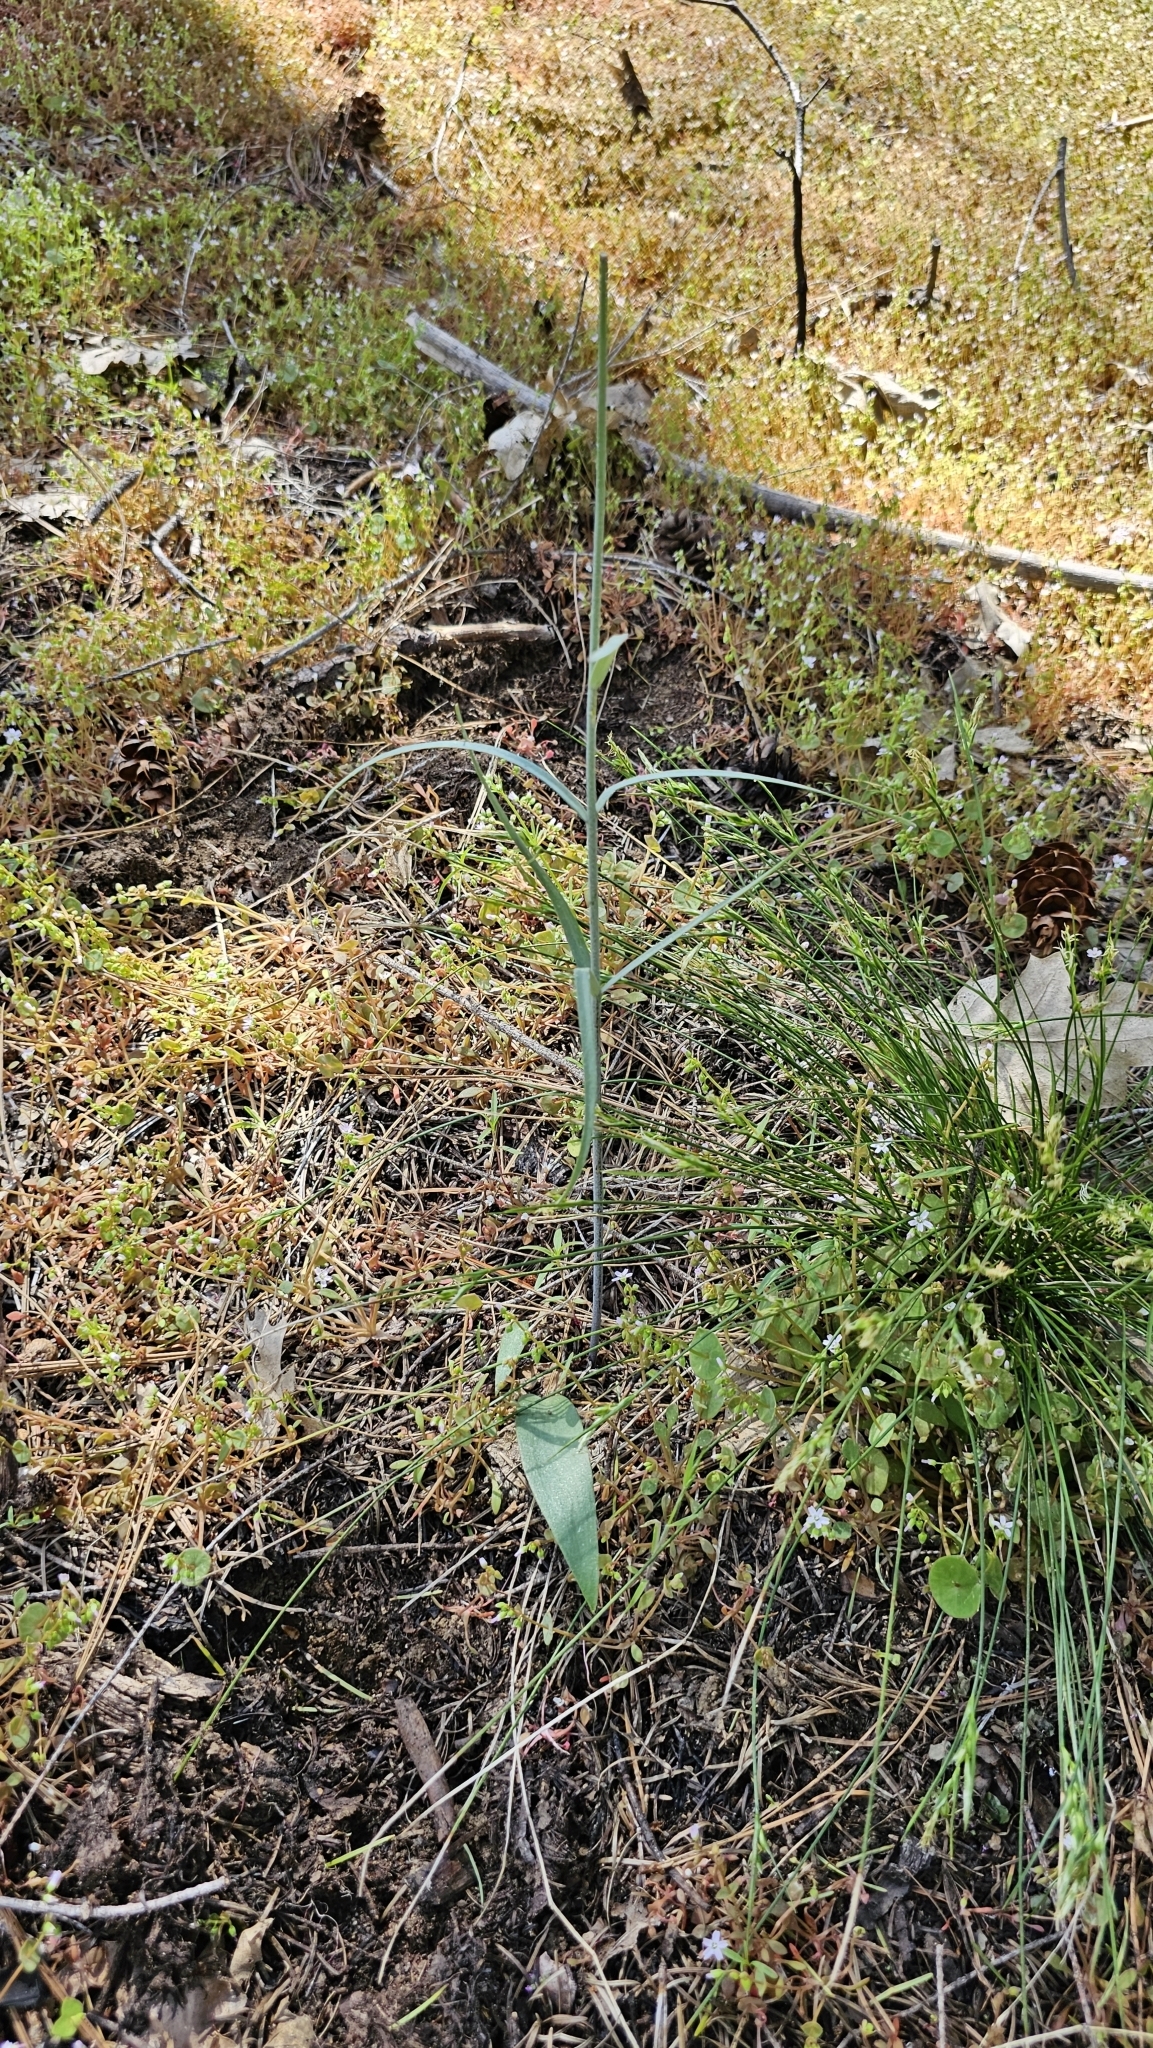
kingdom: Plantae
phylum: Tracheophyta
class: Liliopsida
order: Liliales
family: Liliaceae
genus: Fritillaria
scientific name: Fritillaria micrantha
